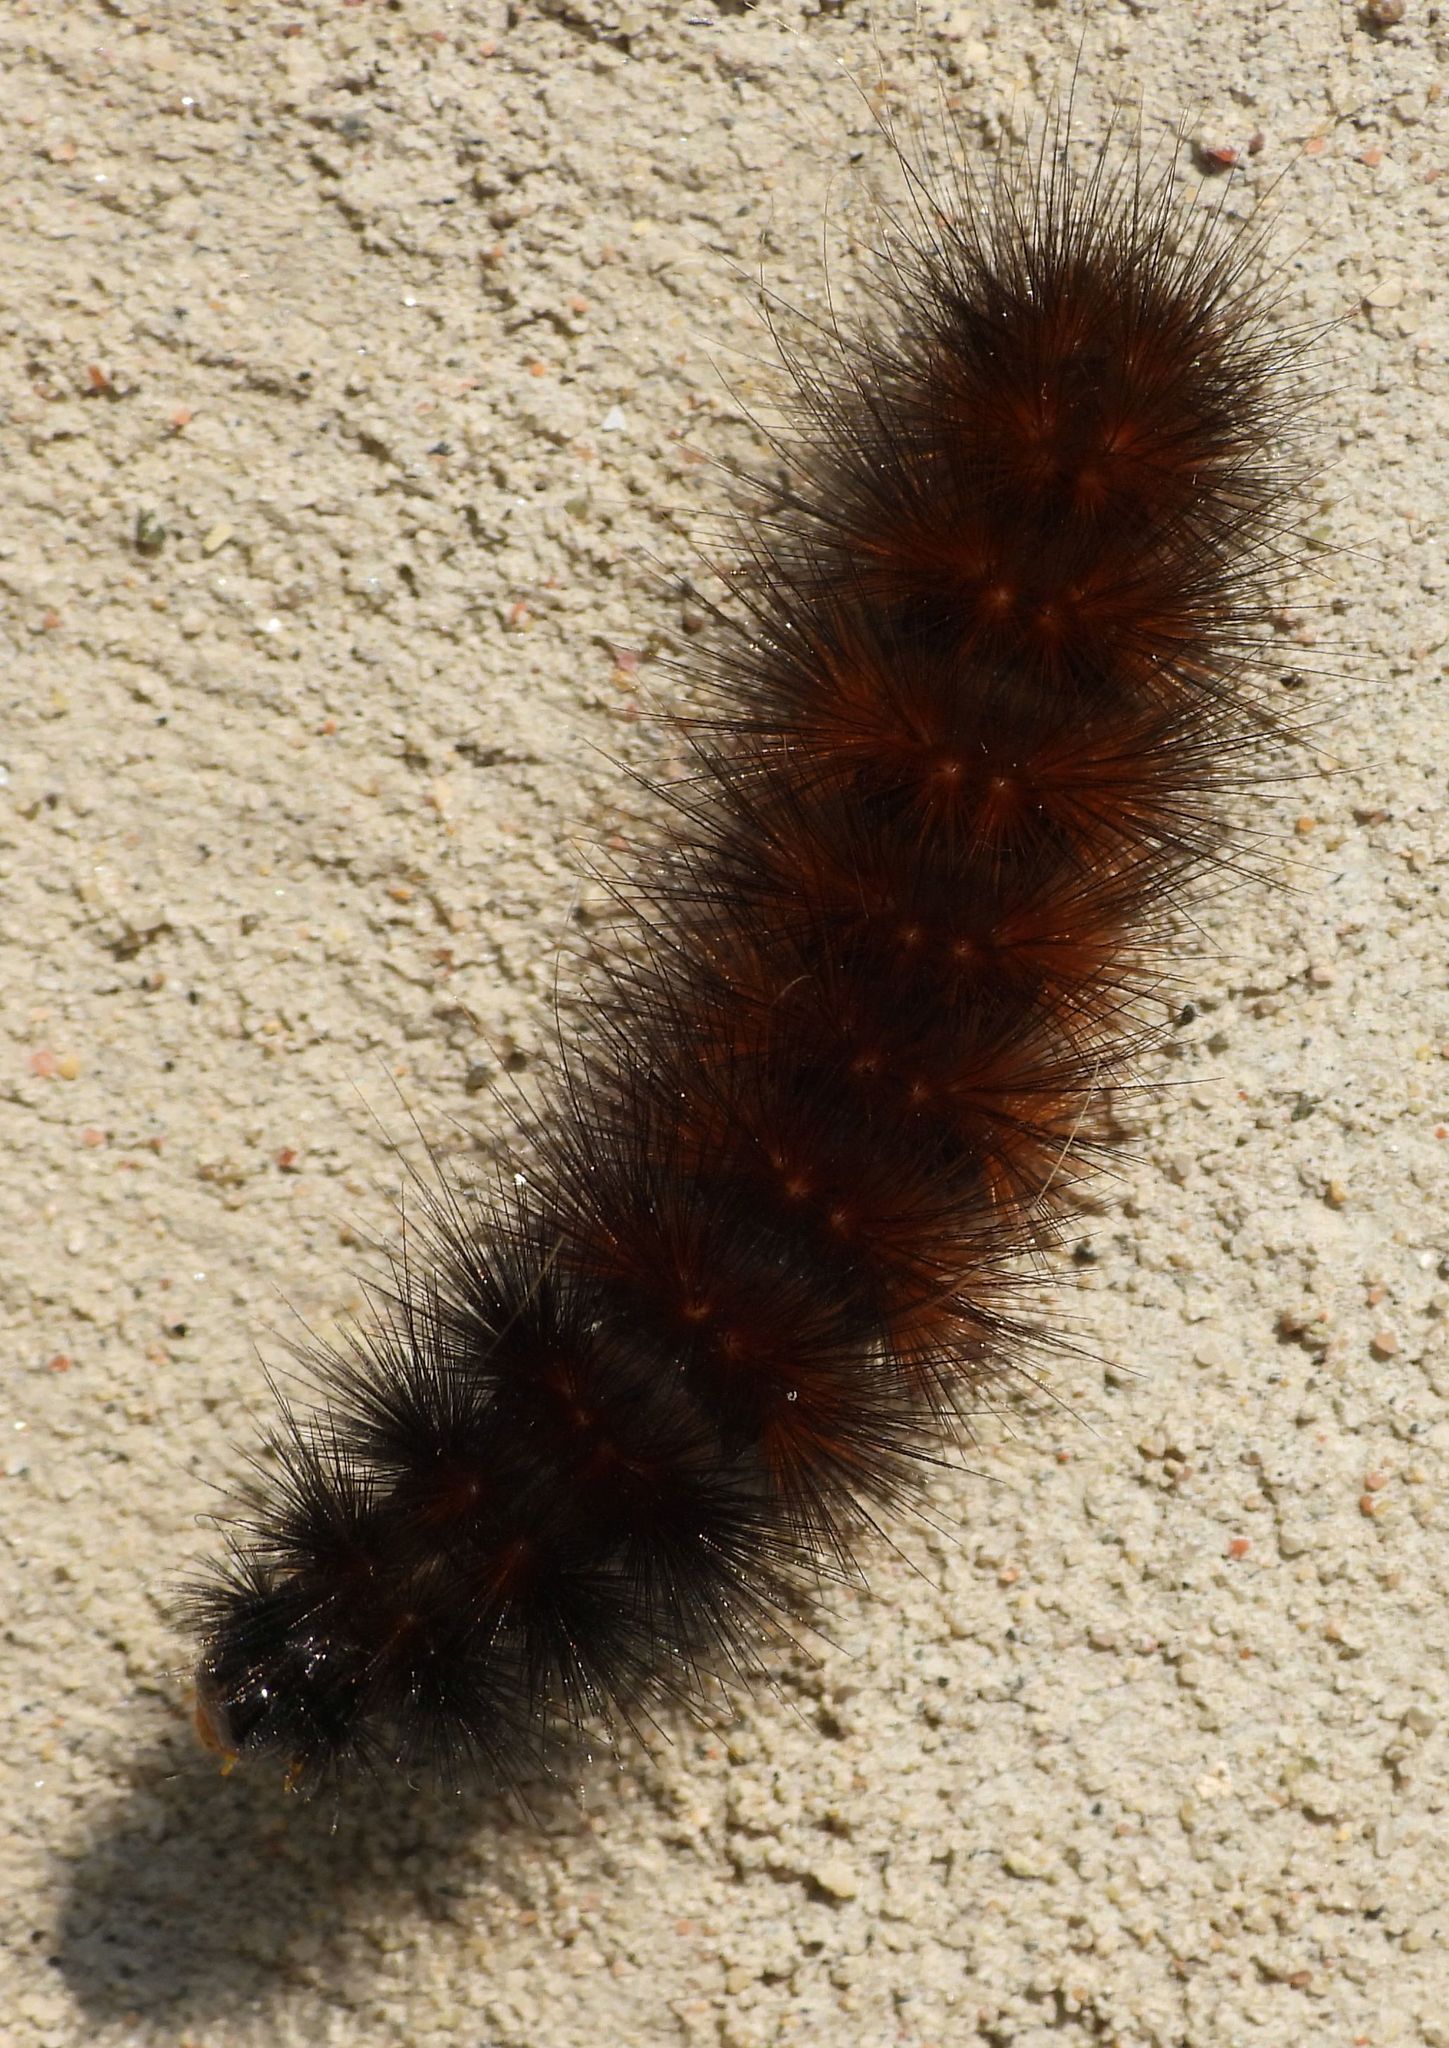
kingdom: Animalia
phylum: Arthropoda
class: Insecta
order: Lepidoptera
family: Erebidae
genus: Pyrrharctia
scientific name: Pyrrharctia isabella
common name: Isabella tiger moth
